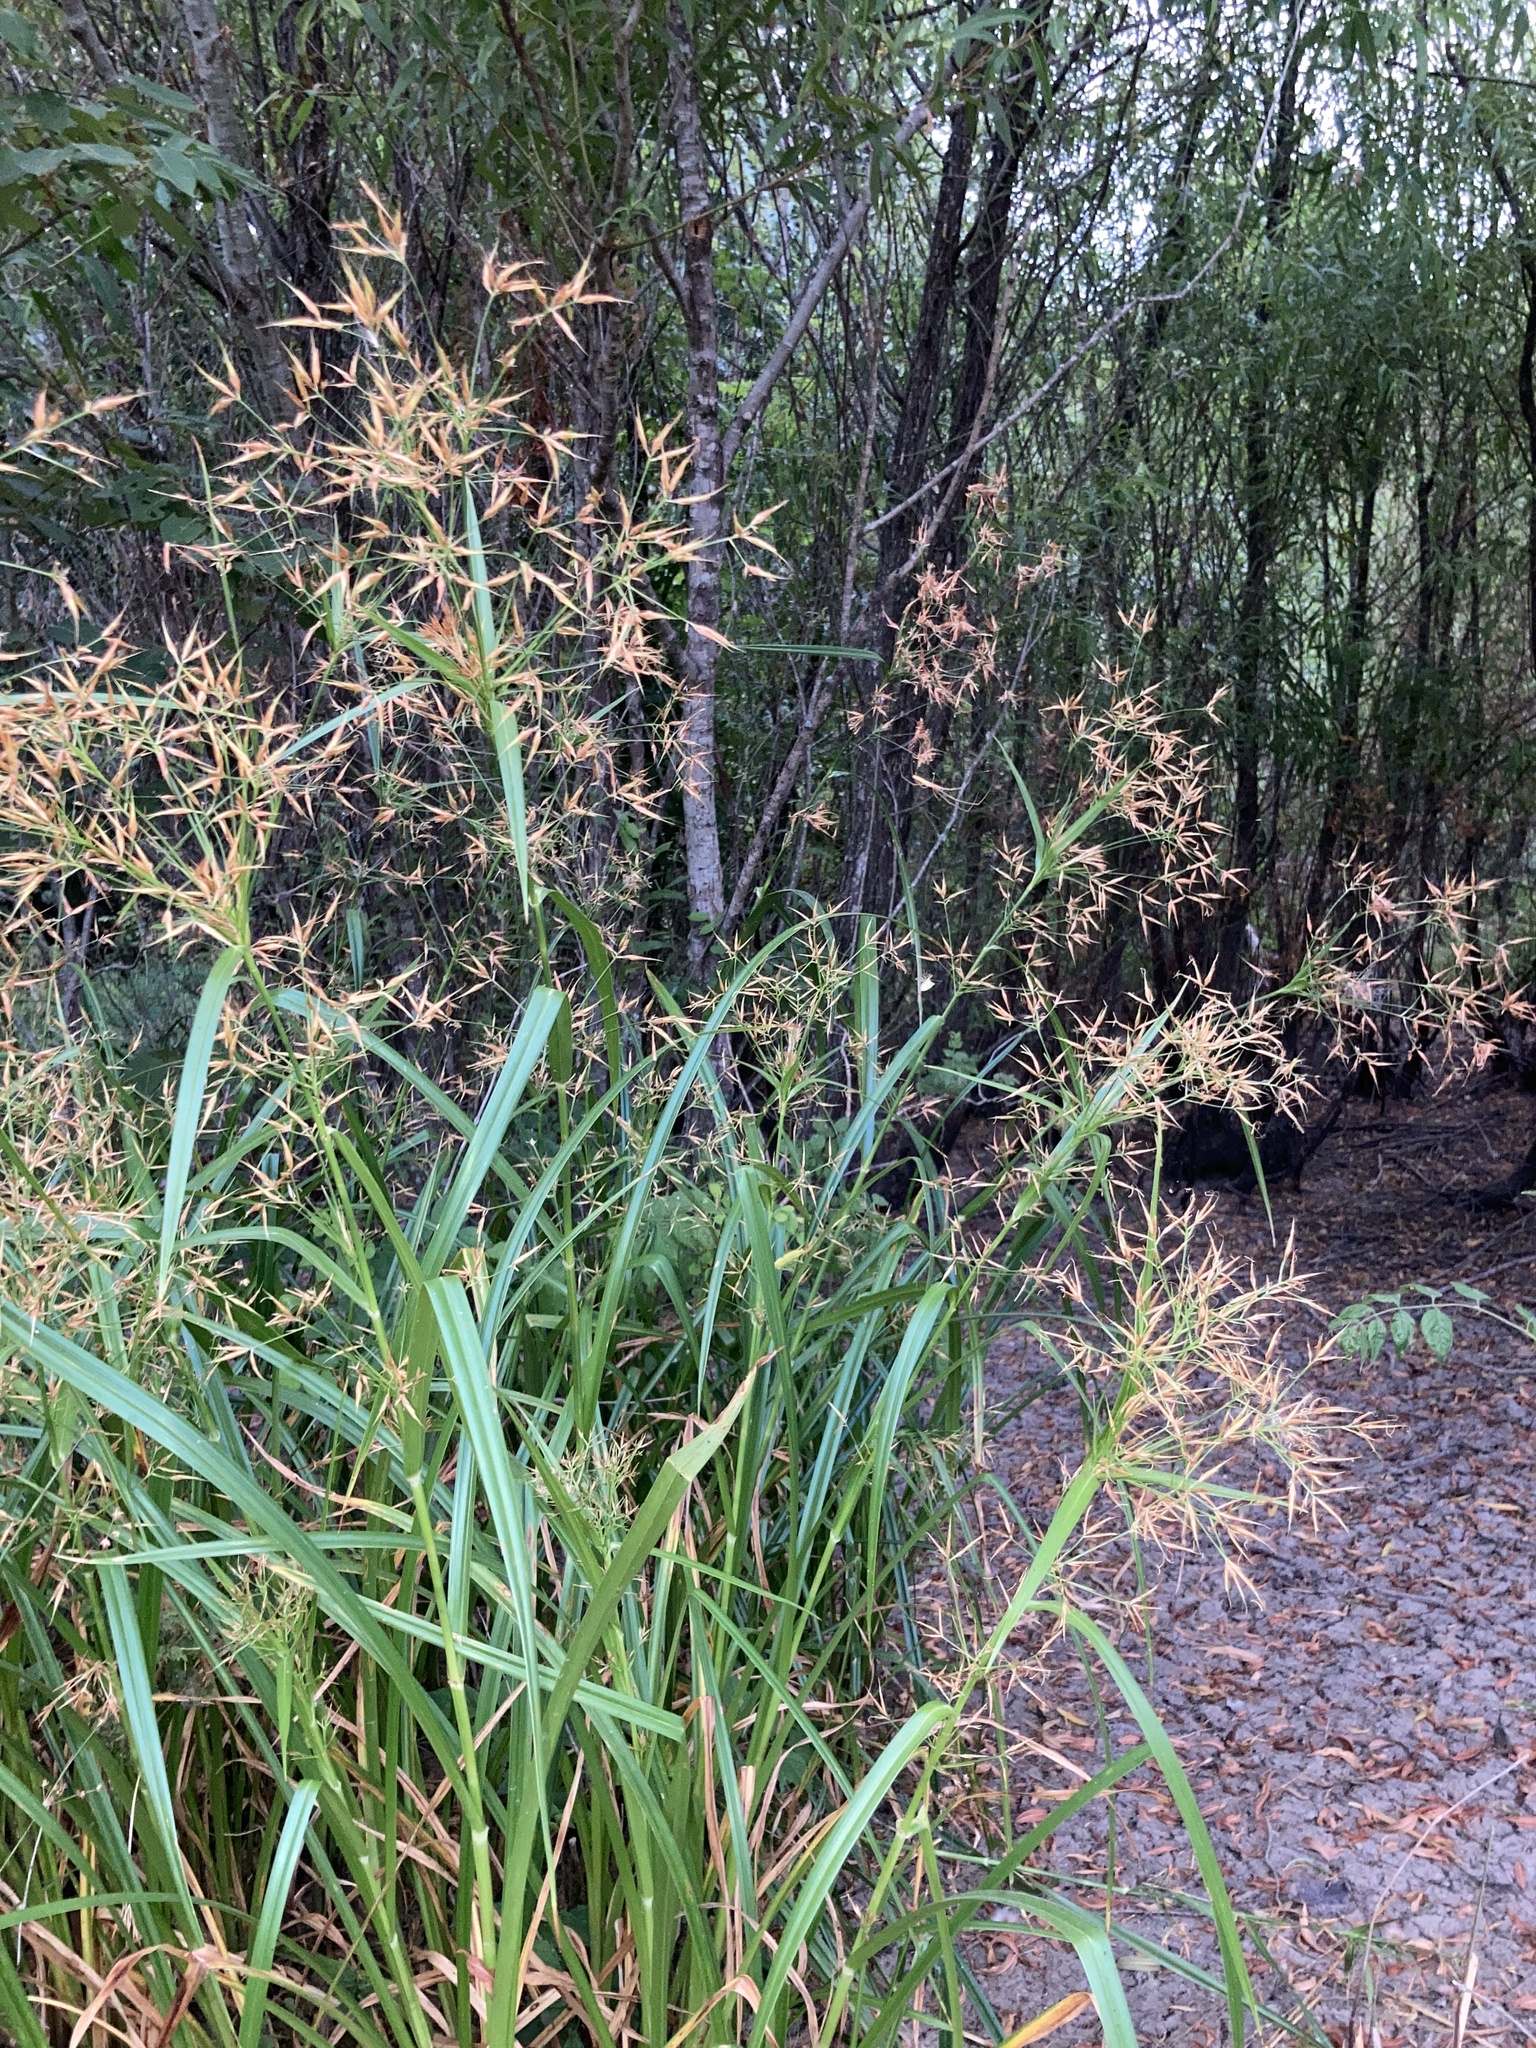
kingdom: Plantae
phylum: Tracheophyta
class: Liliopsida
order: Poales
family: Cyperaceae
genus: Rhynchospora
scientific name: Rhynchospora corniculata
